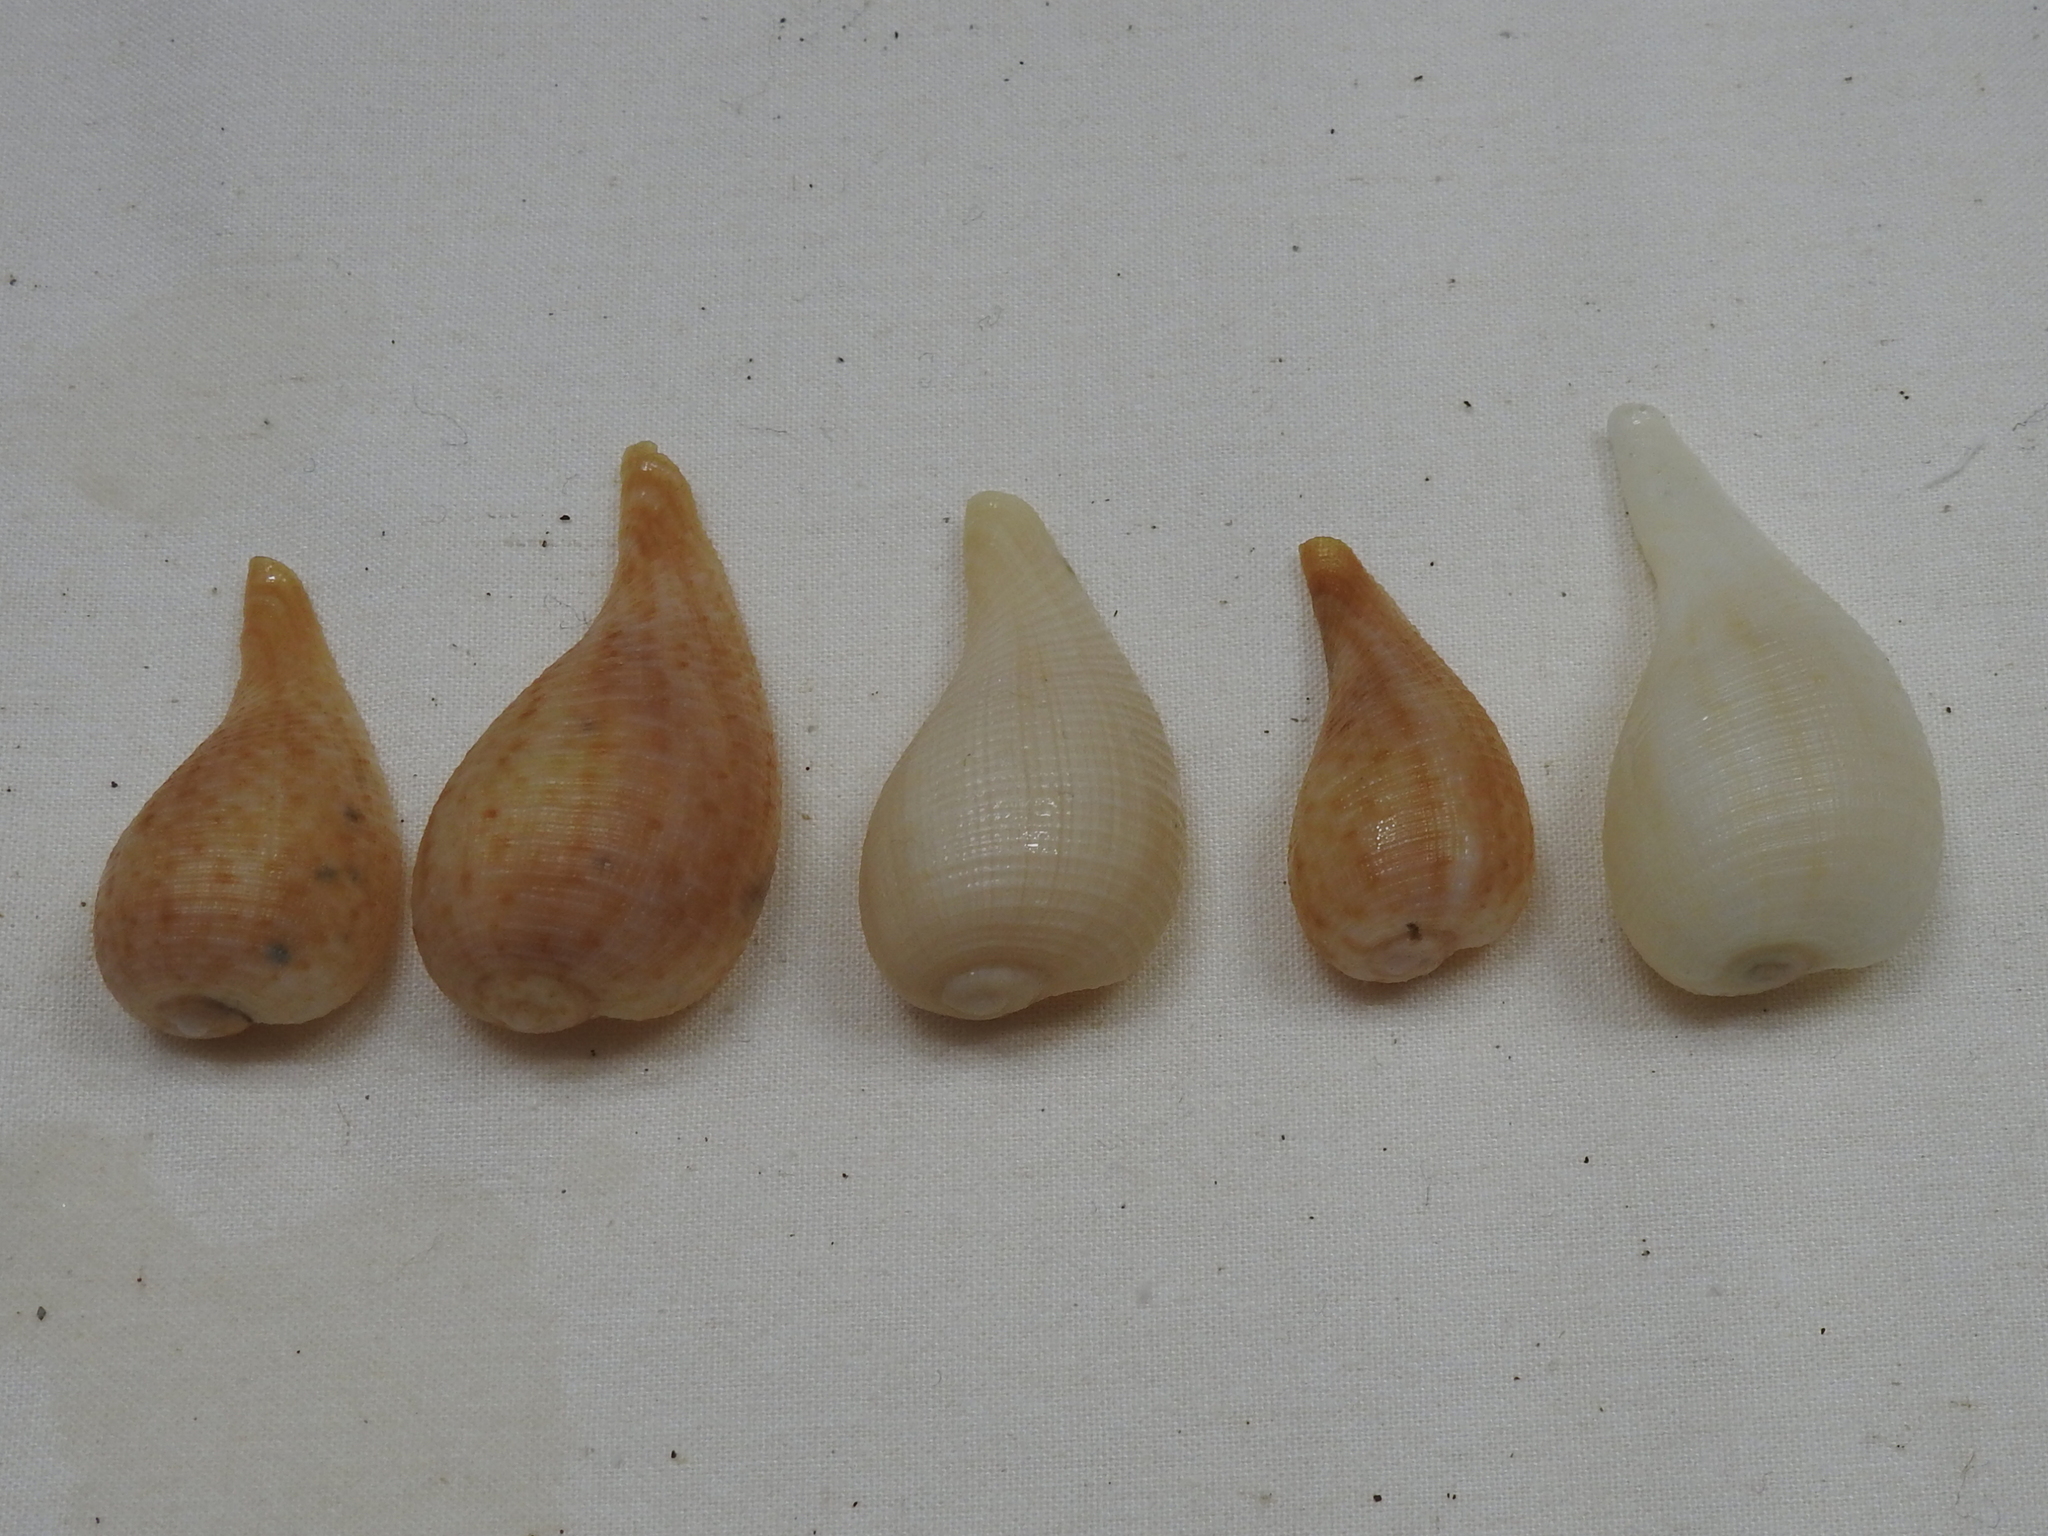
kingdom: Animalia
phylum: Mollusca
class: Gastropoda
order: Littorinimorpha
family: Ficidae
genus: Ficus
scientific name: Ficus papyratia
